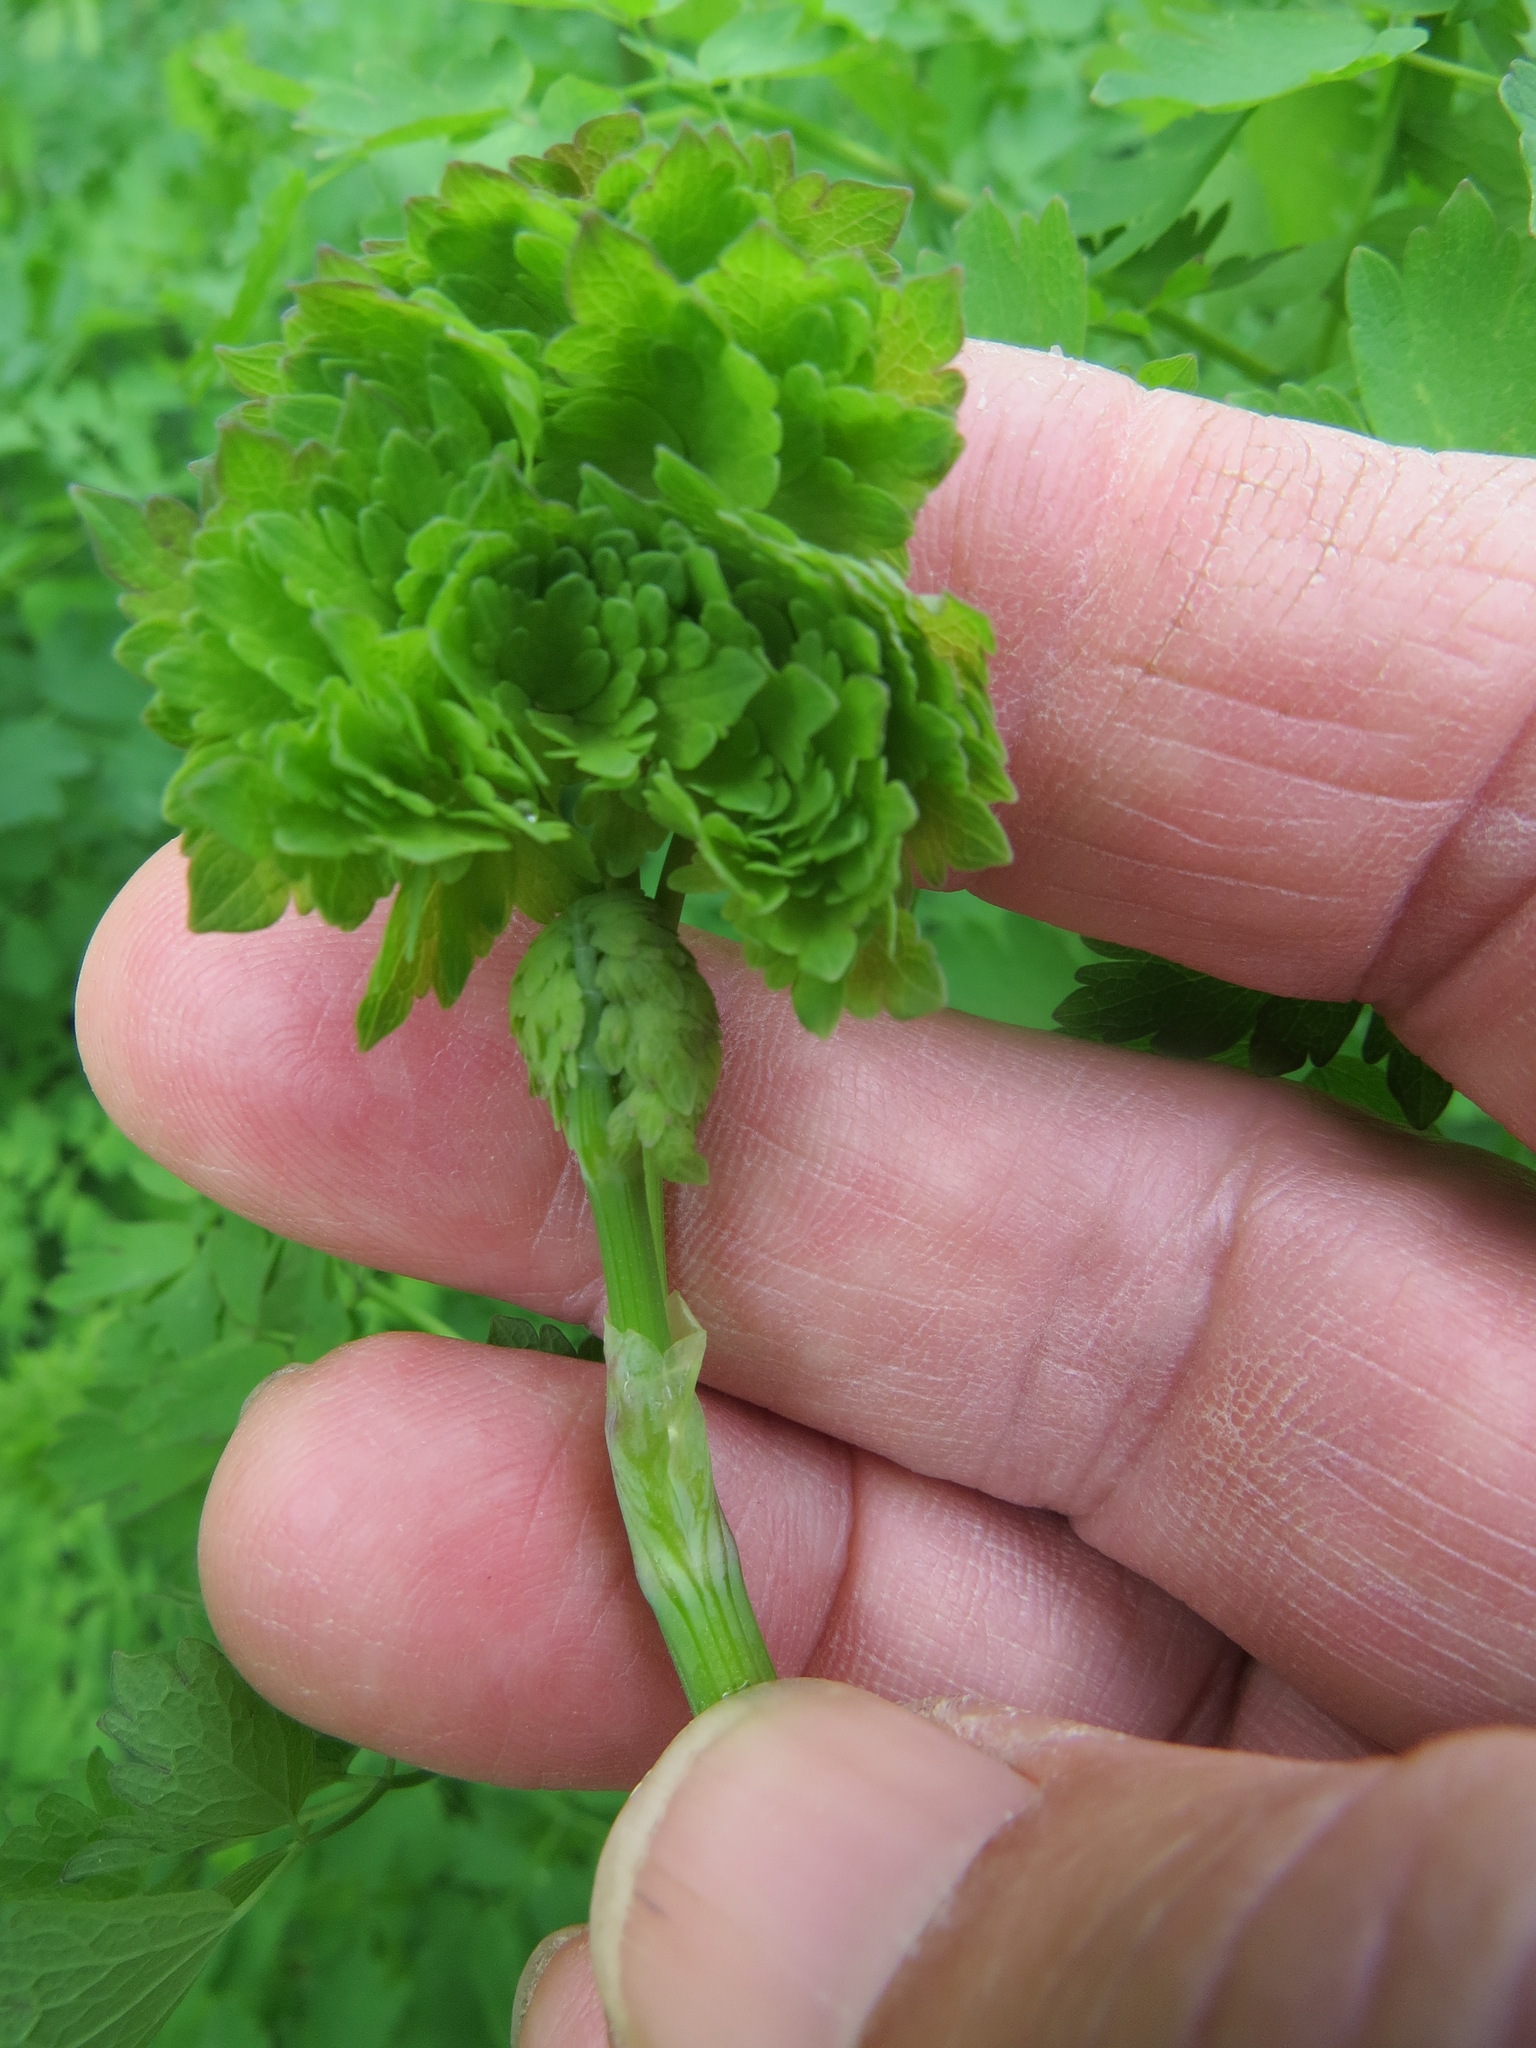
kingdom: Plantae
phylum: Tracheophyta
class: Magnoliopsida
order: Ranunculales
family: Ranunculaceae
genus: Thalictrum
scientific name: Thalictrum fendleri
